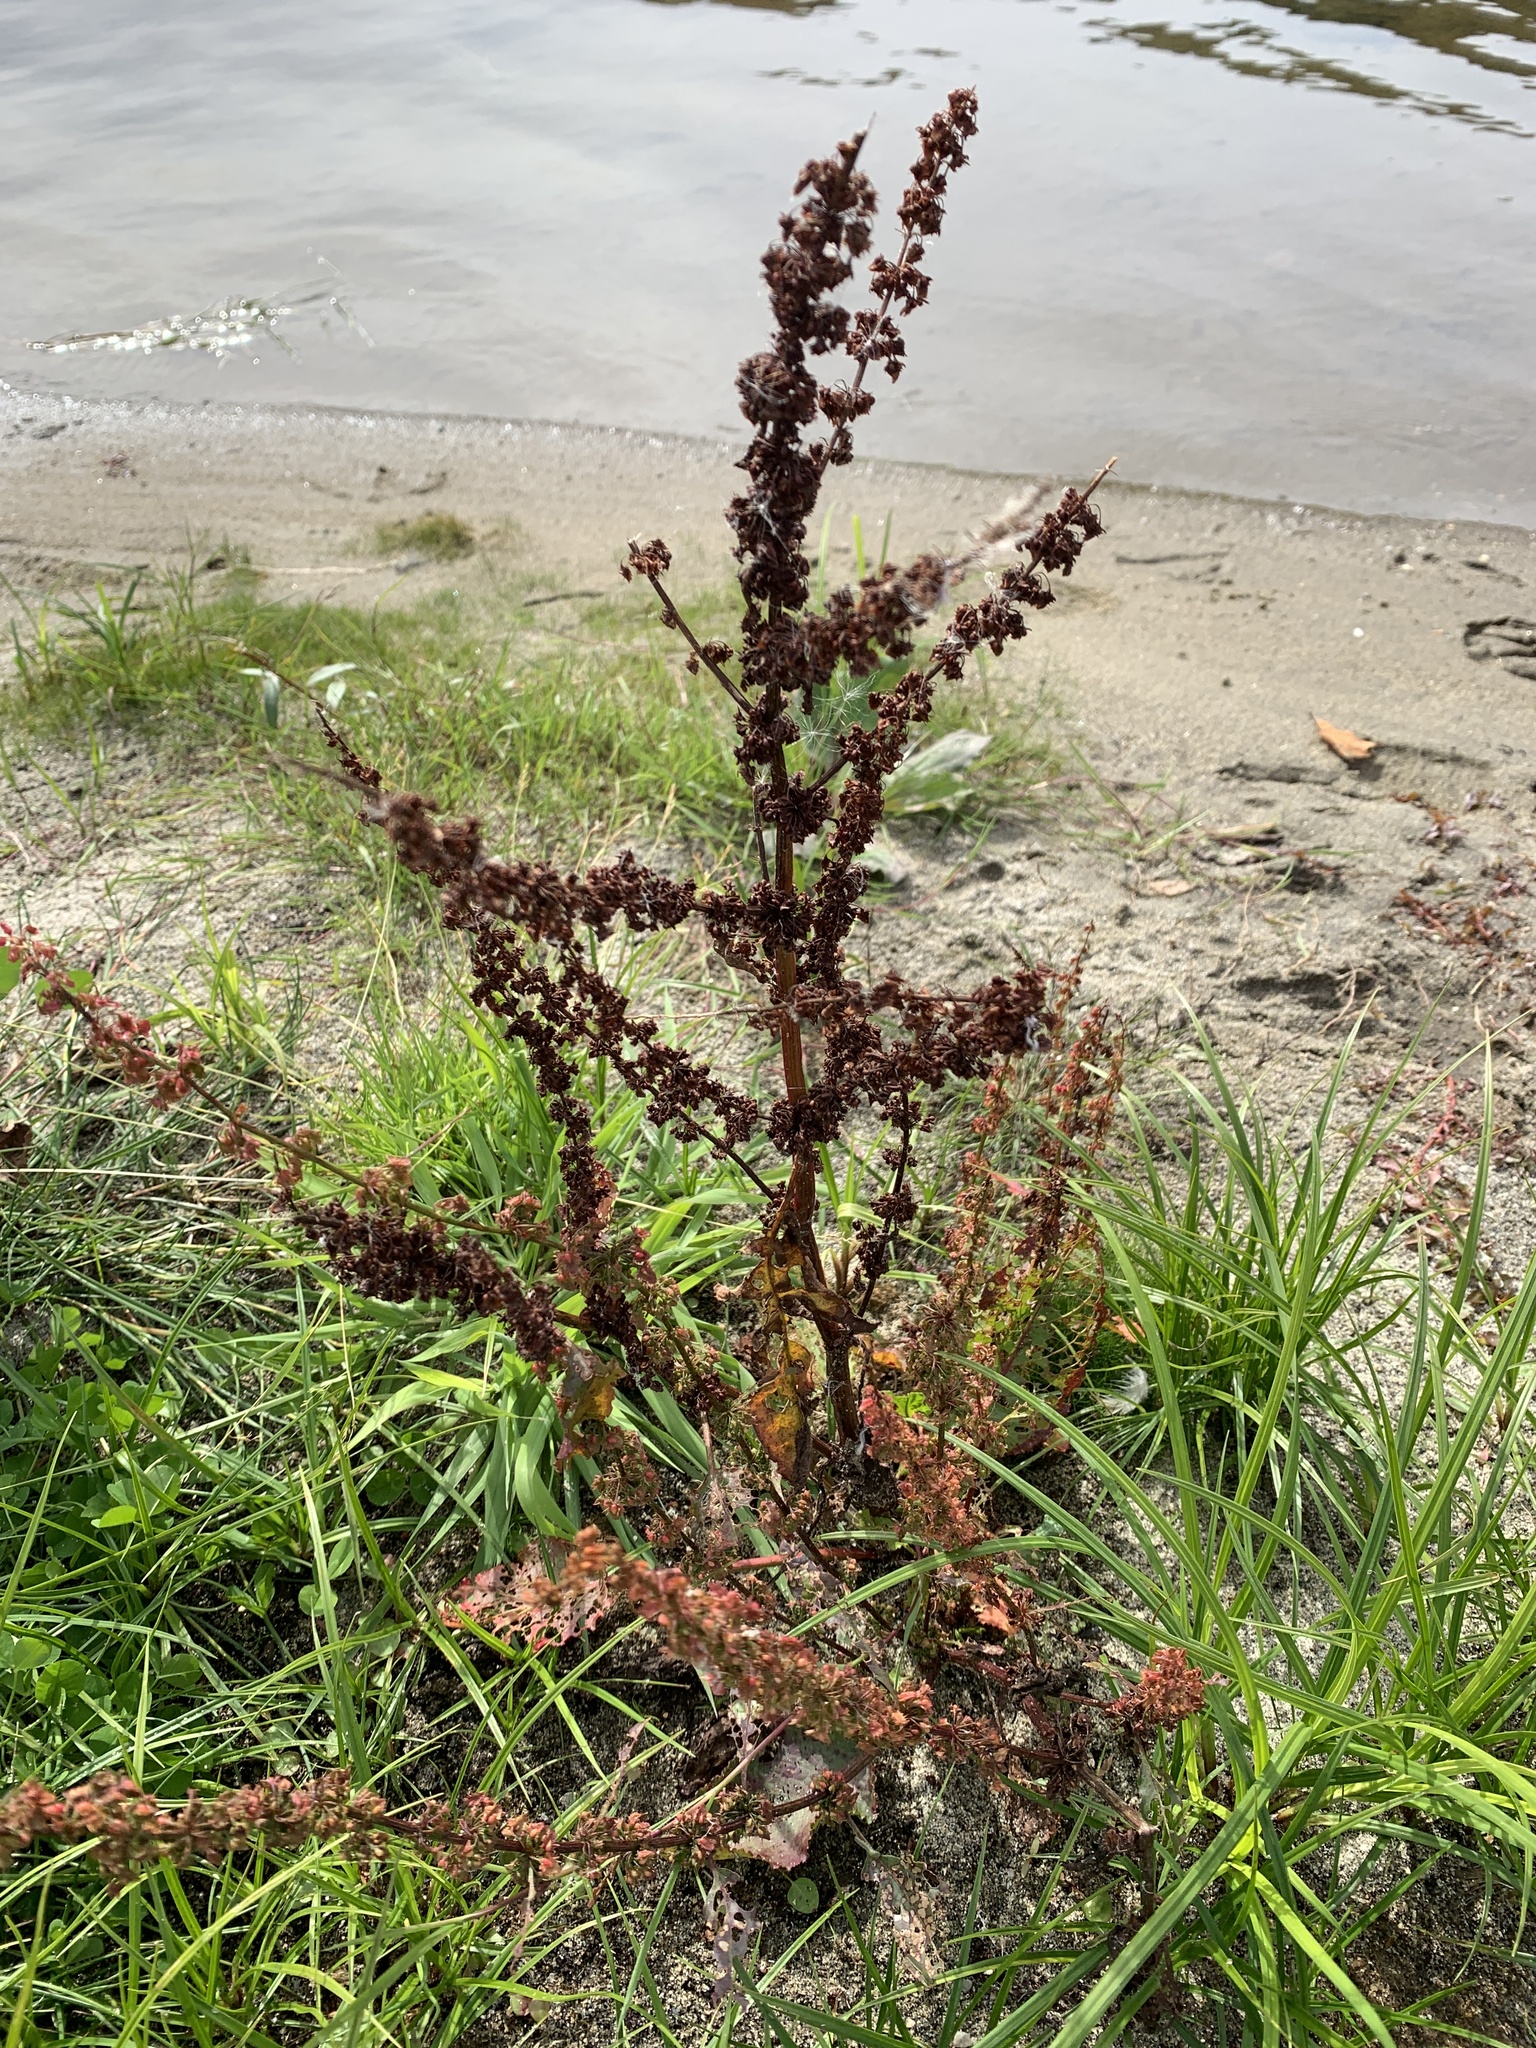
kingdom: Plantae
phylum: Tracheophyta
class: Magnoliopsida
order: Caryophyllales
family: Polygonaceae
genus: Rumex
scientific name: Rumex obtusifolius
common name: Bitter dock
